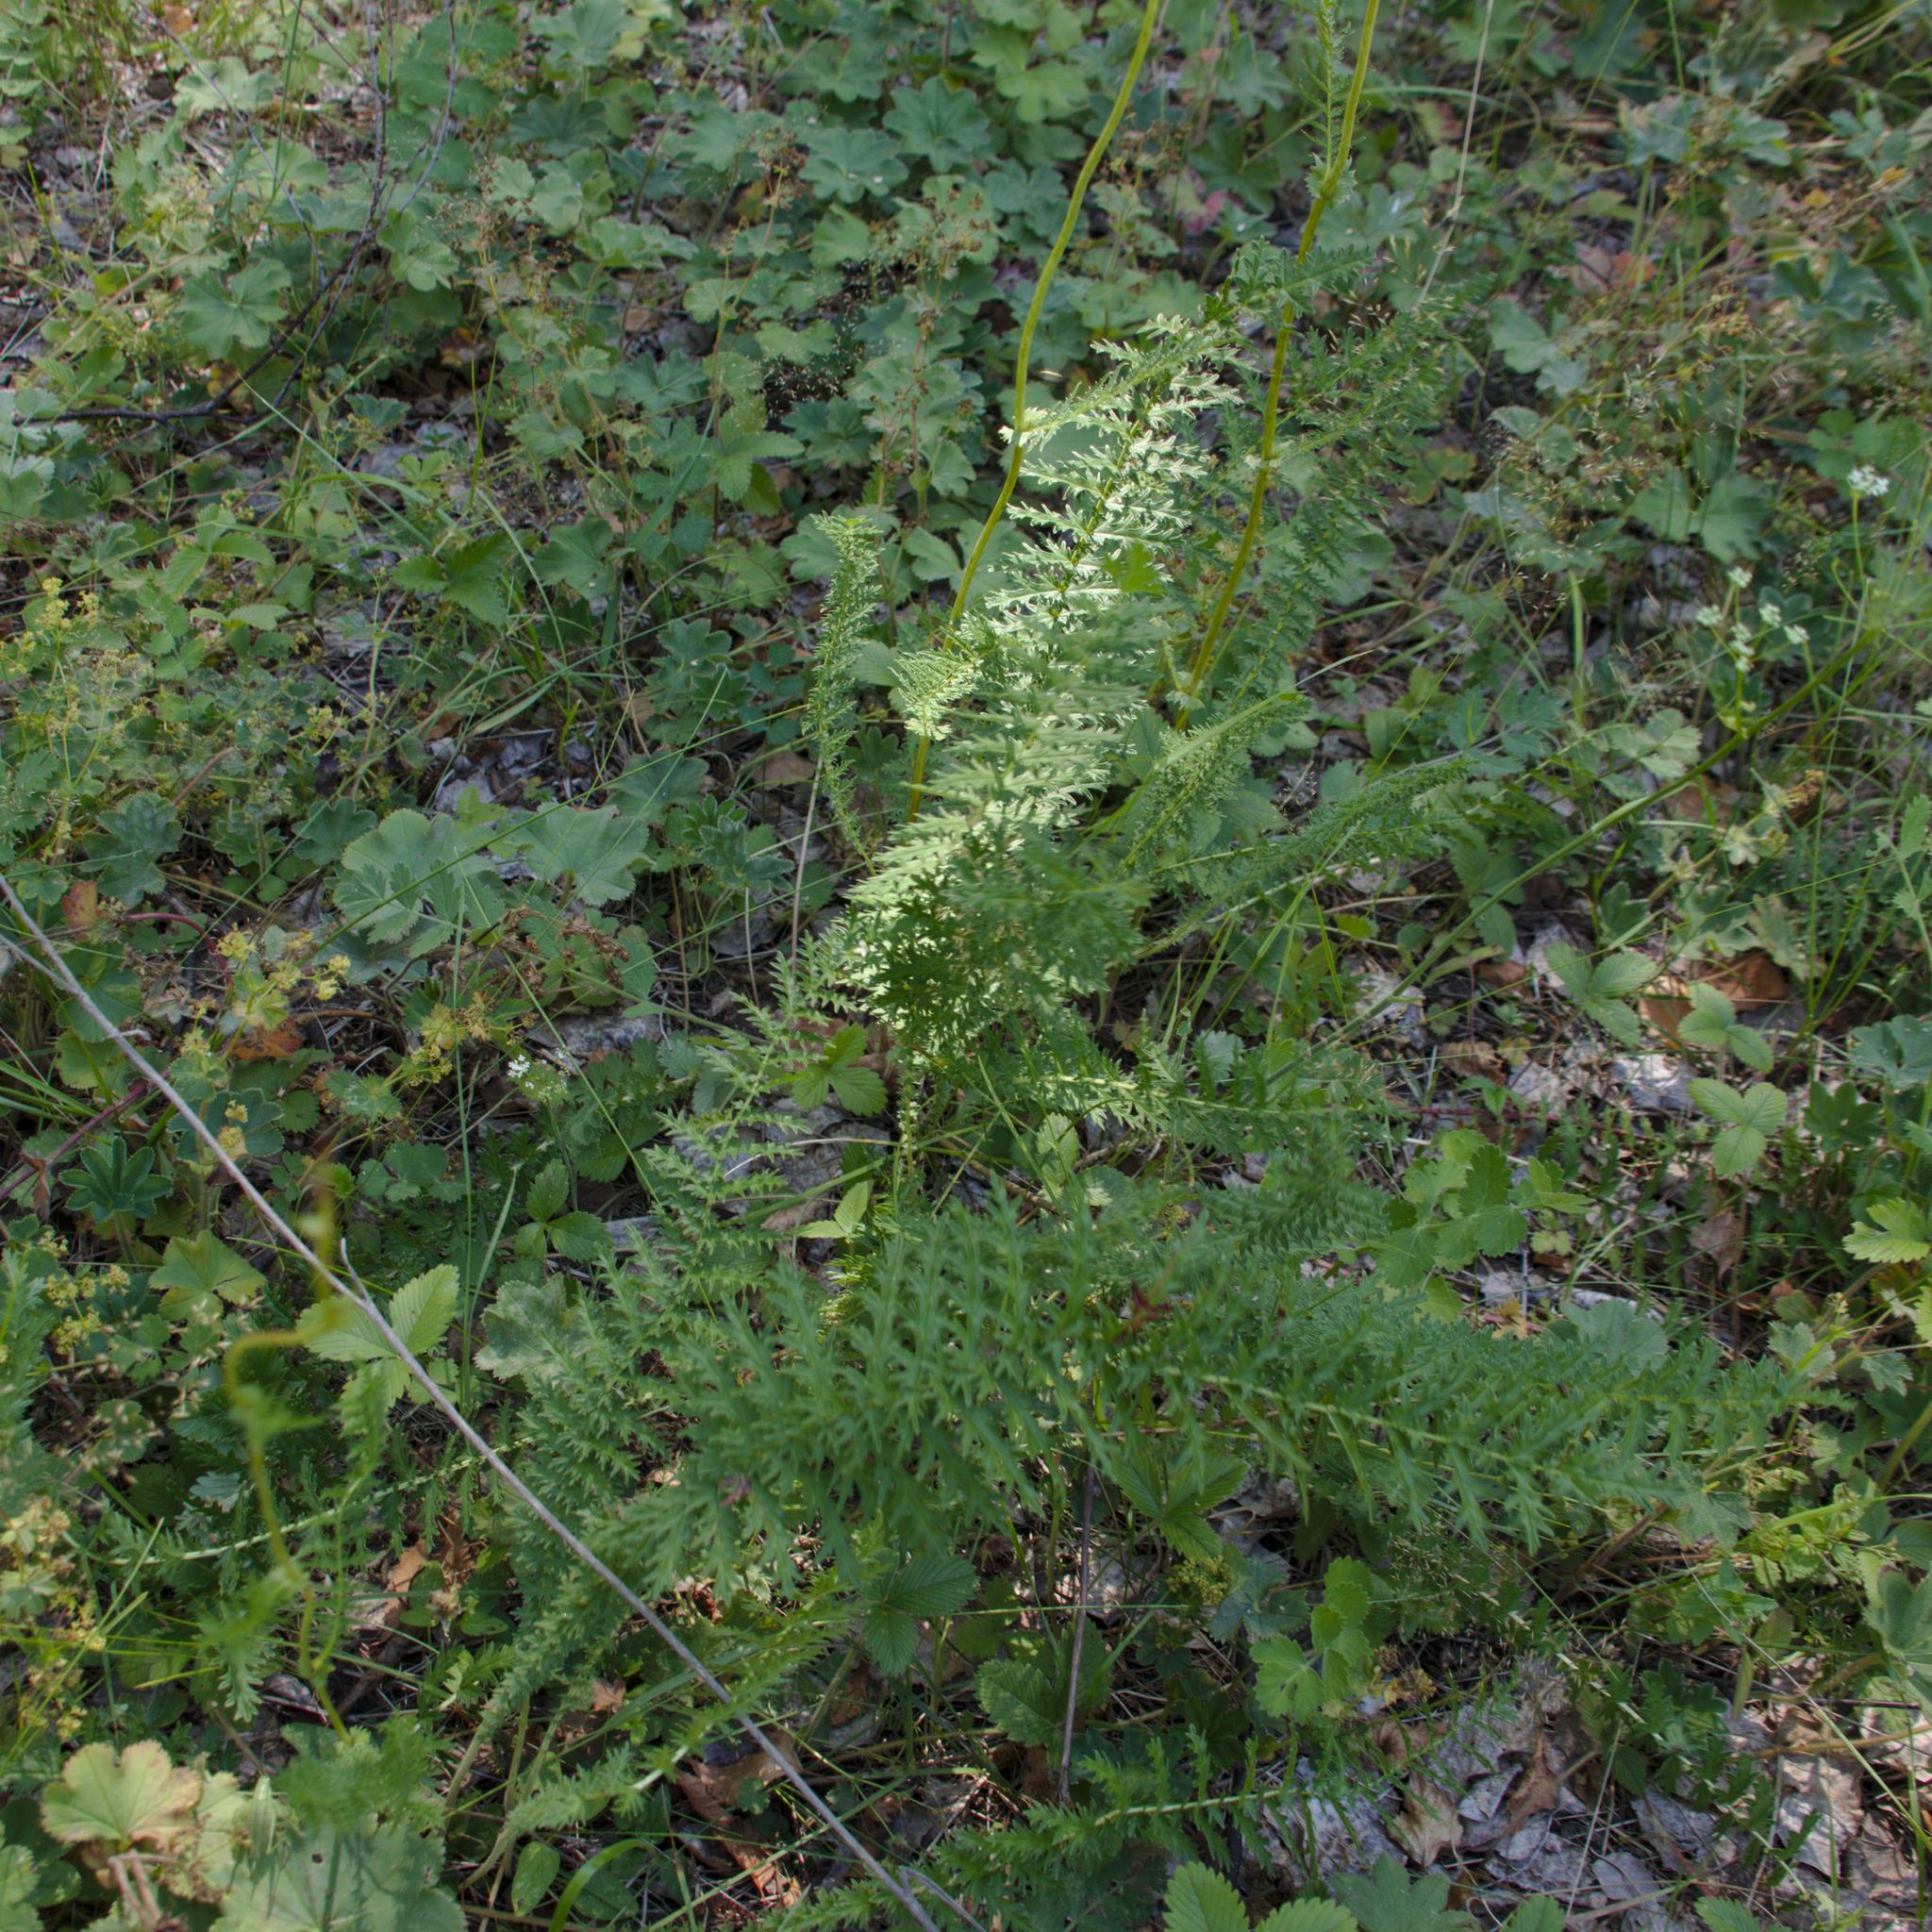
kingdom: Plantae
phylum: Tracheophyta
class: Magnoliopsida
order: Rosales
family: Rosaceae
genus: Filipendula
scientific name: Filipendula vulgaris
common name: Dropwort
